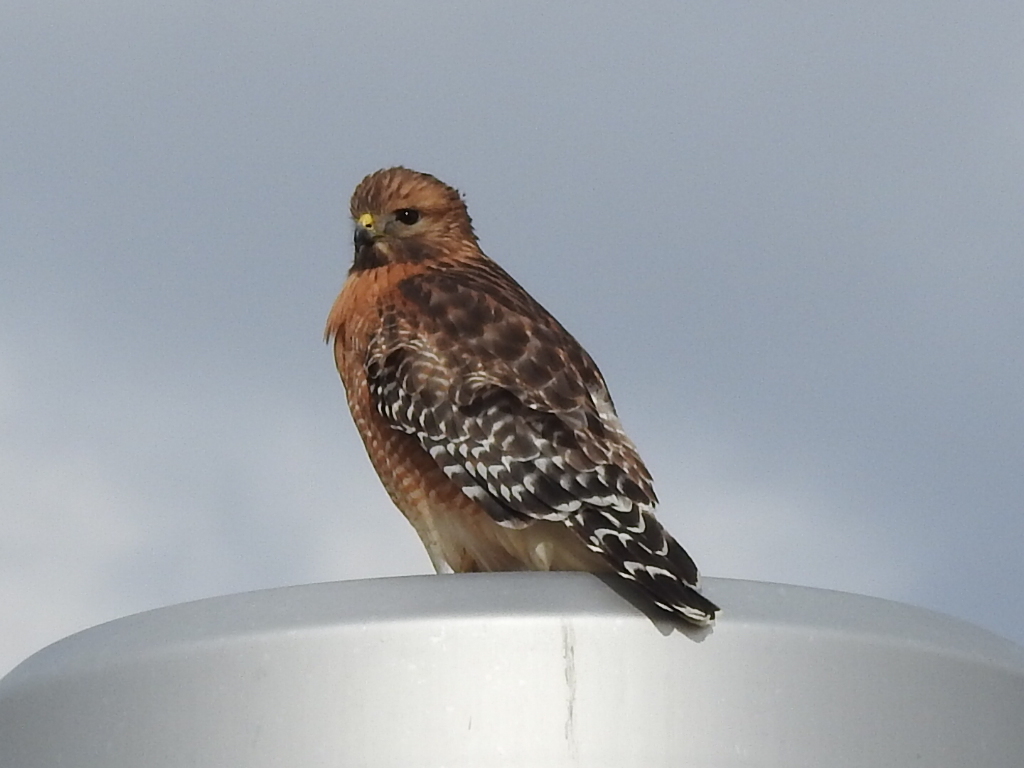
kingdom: Animalia
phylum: Chordata
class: Aves
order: Accipitriformes
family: Accipitridae
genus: Buteo
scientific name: Buteo lineatus
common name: Red-shouldered hawk
